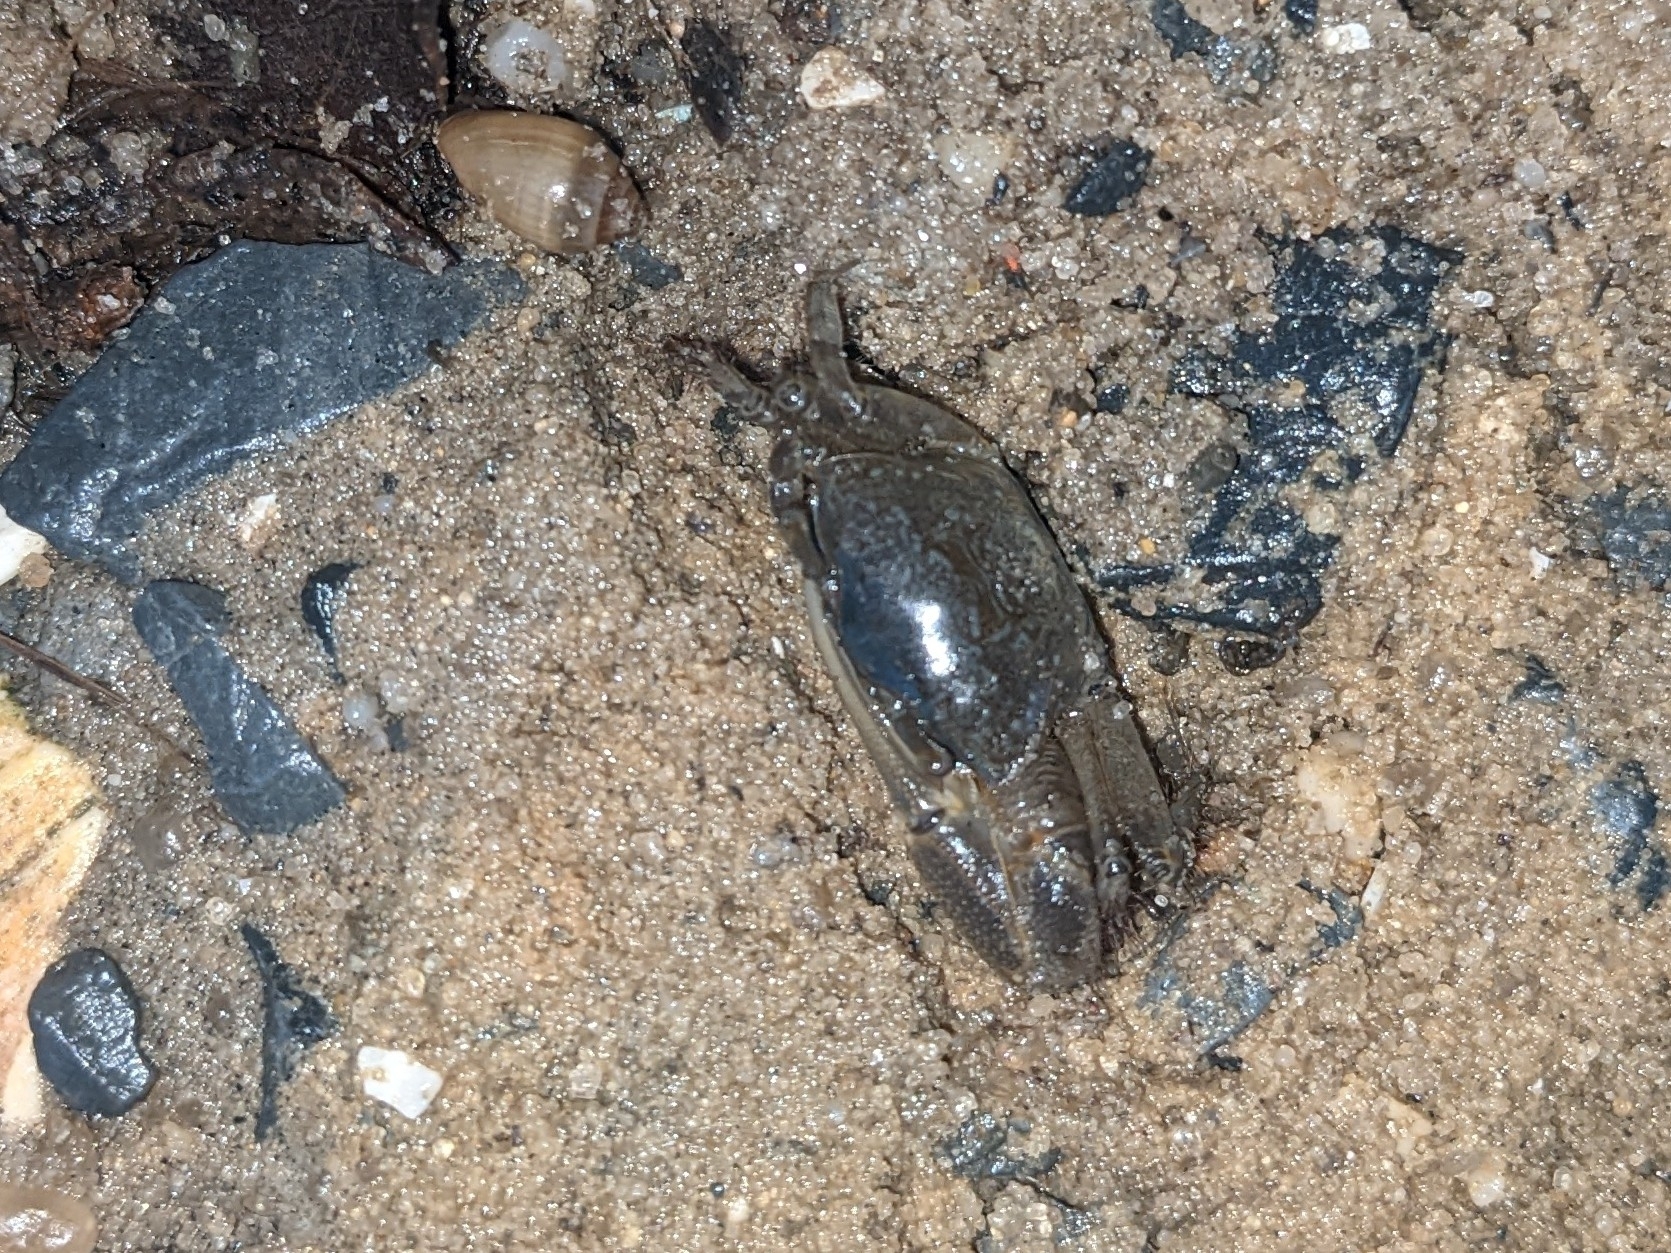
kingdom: Animalia
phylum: Arthropoda
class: Malacostraca
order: Decapoda
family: Ocypodidae
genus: Minuca
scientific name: Minuca pugnax
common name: Mud fiddler crab
